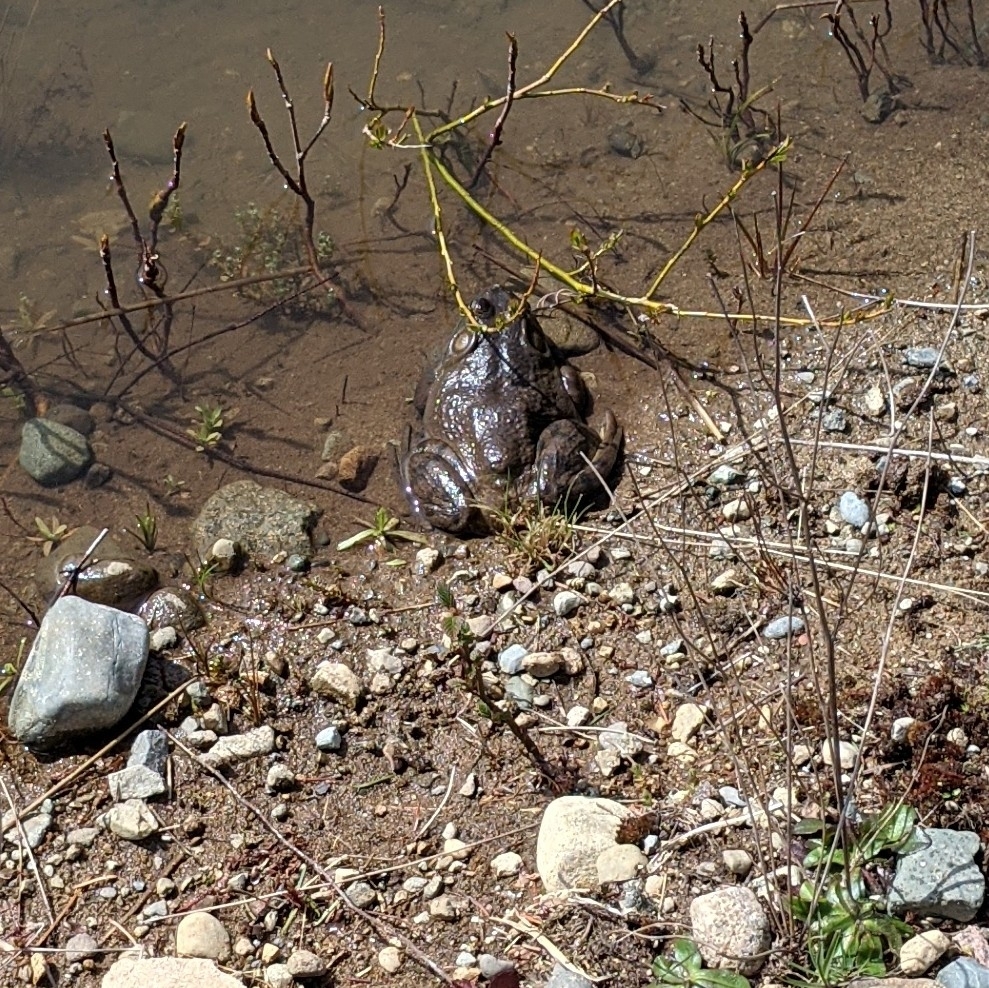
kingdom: Animalia
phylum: Chordata
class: Amphibia
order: Anura
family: Ranidae
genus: Lithobates
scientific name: Lithobates catesbeianus
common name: American bullfrog
